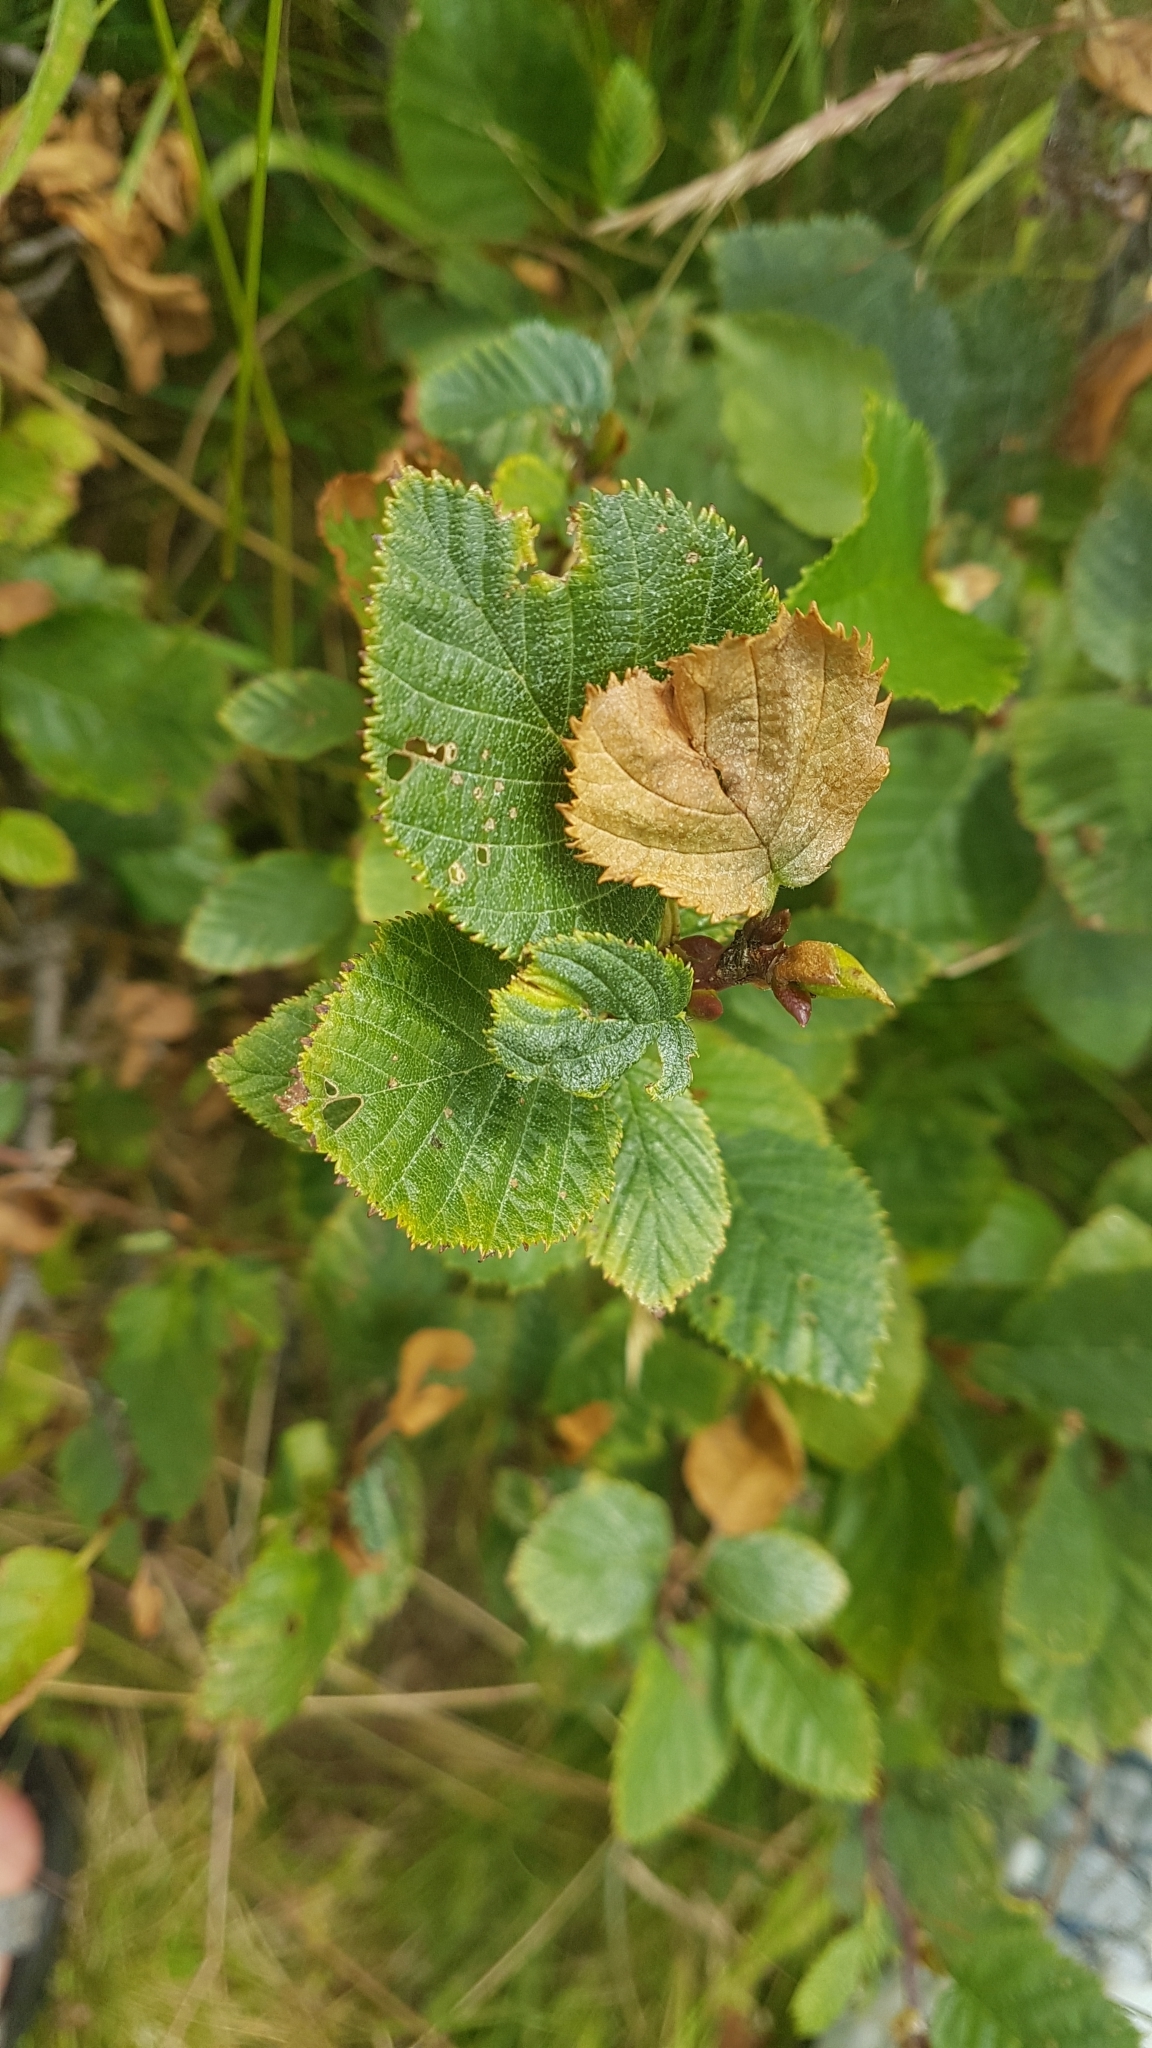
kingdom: Plantae
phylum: Tracheophyta
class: Magnoliopsida
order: Fagales
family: Betulaceae
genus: Alnus
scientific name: Alnus alnobetula
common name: Green alder
